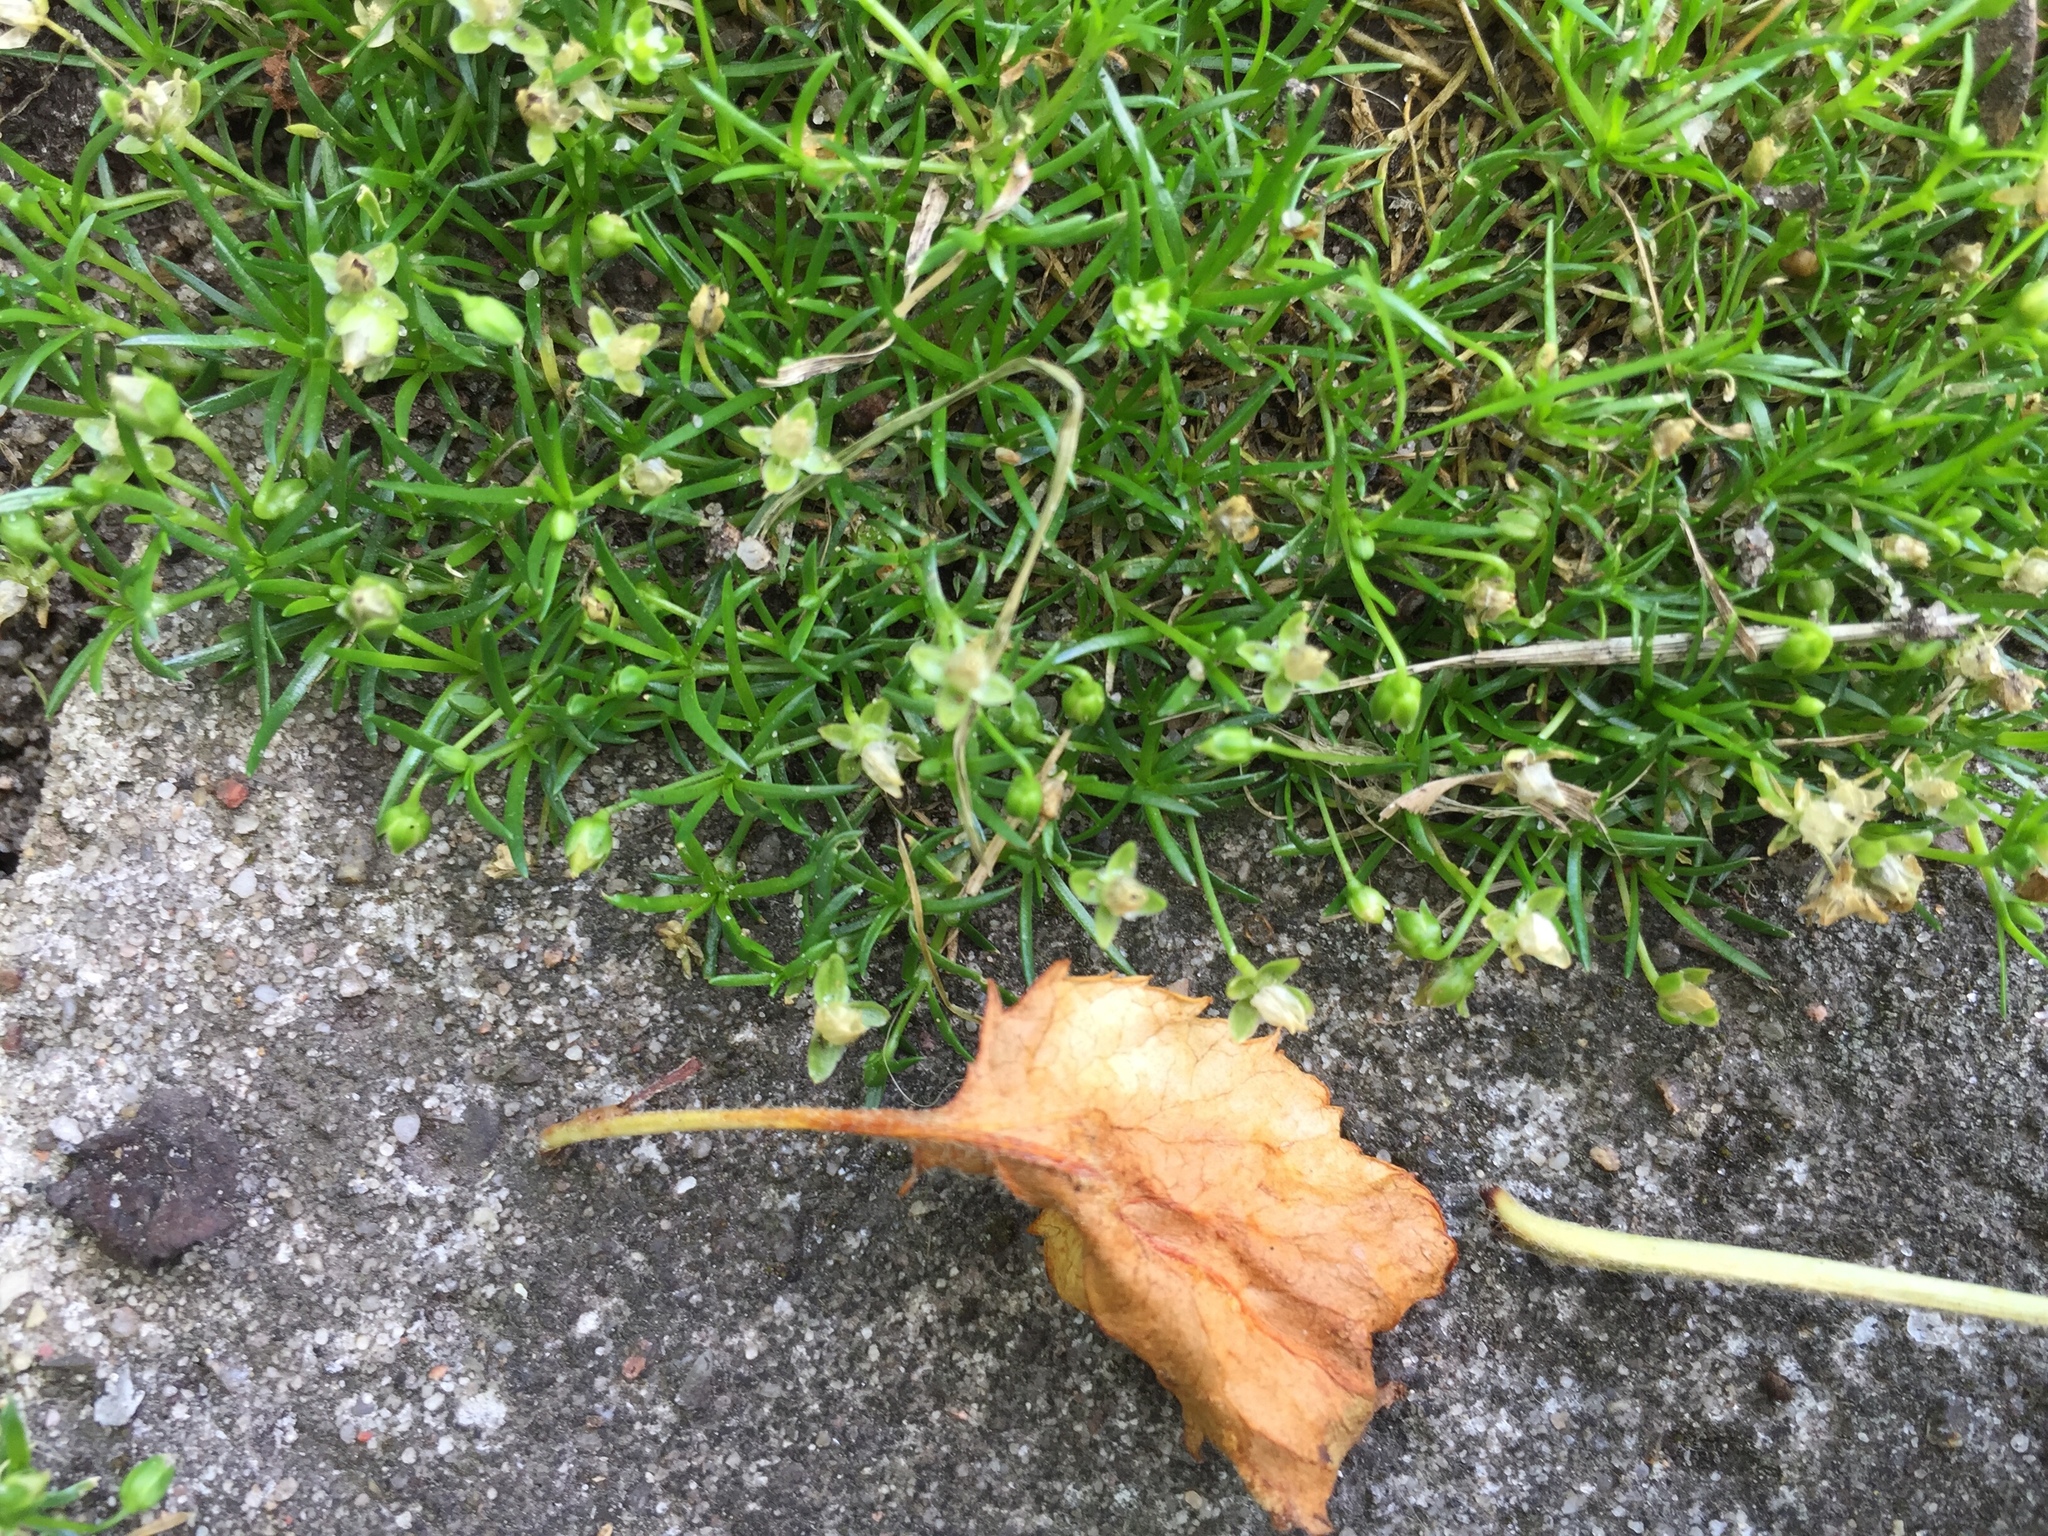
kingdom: Plantae
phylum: Tracheophyta
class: Magnoliopsida
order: Caryophyllales
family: Caryophyllaceae
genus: Sagina
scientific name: Sagina procumbens
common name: Procumbent pearlwort
